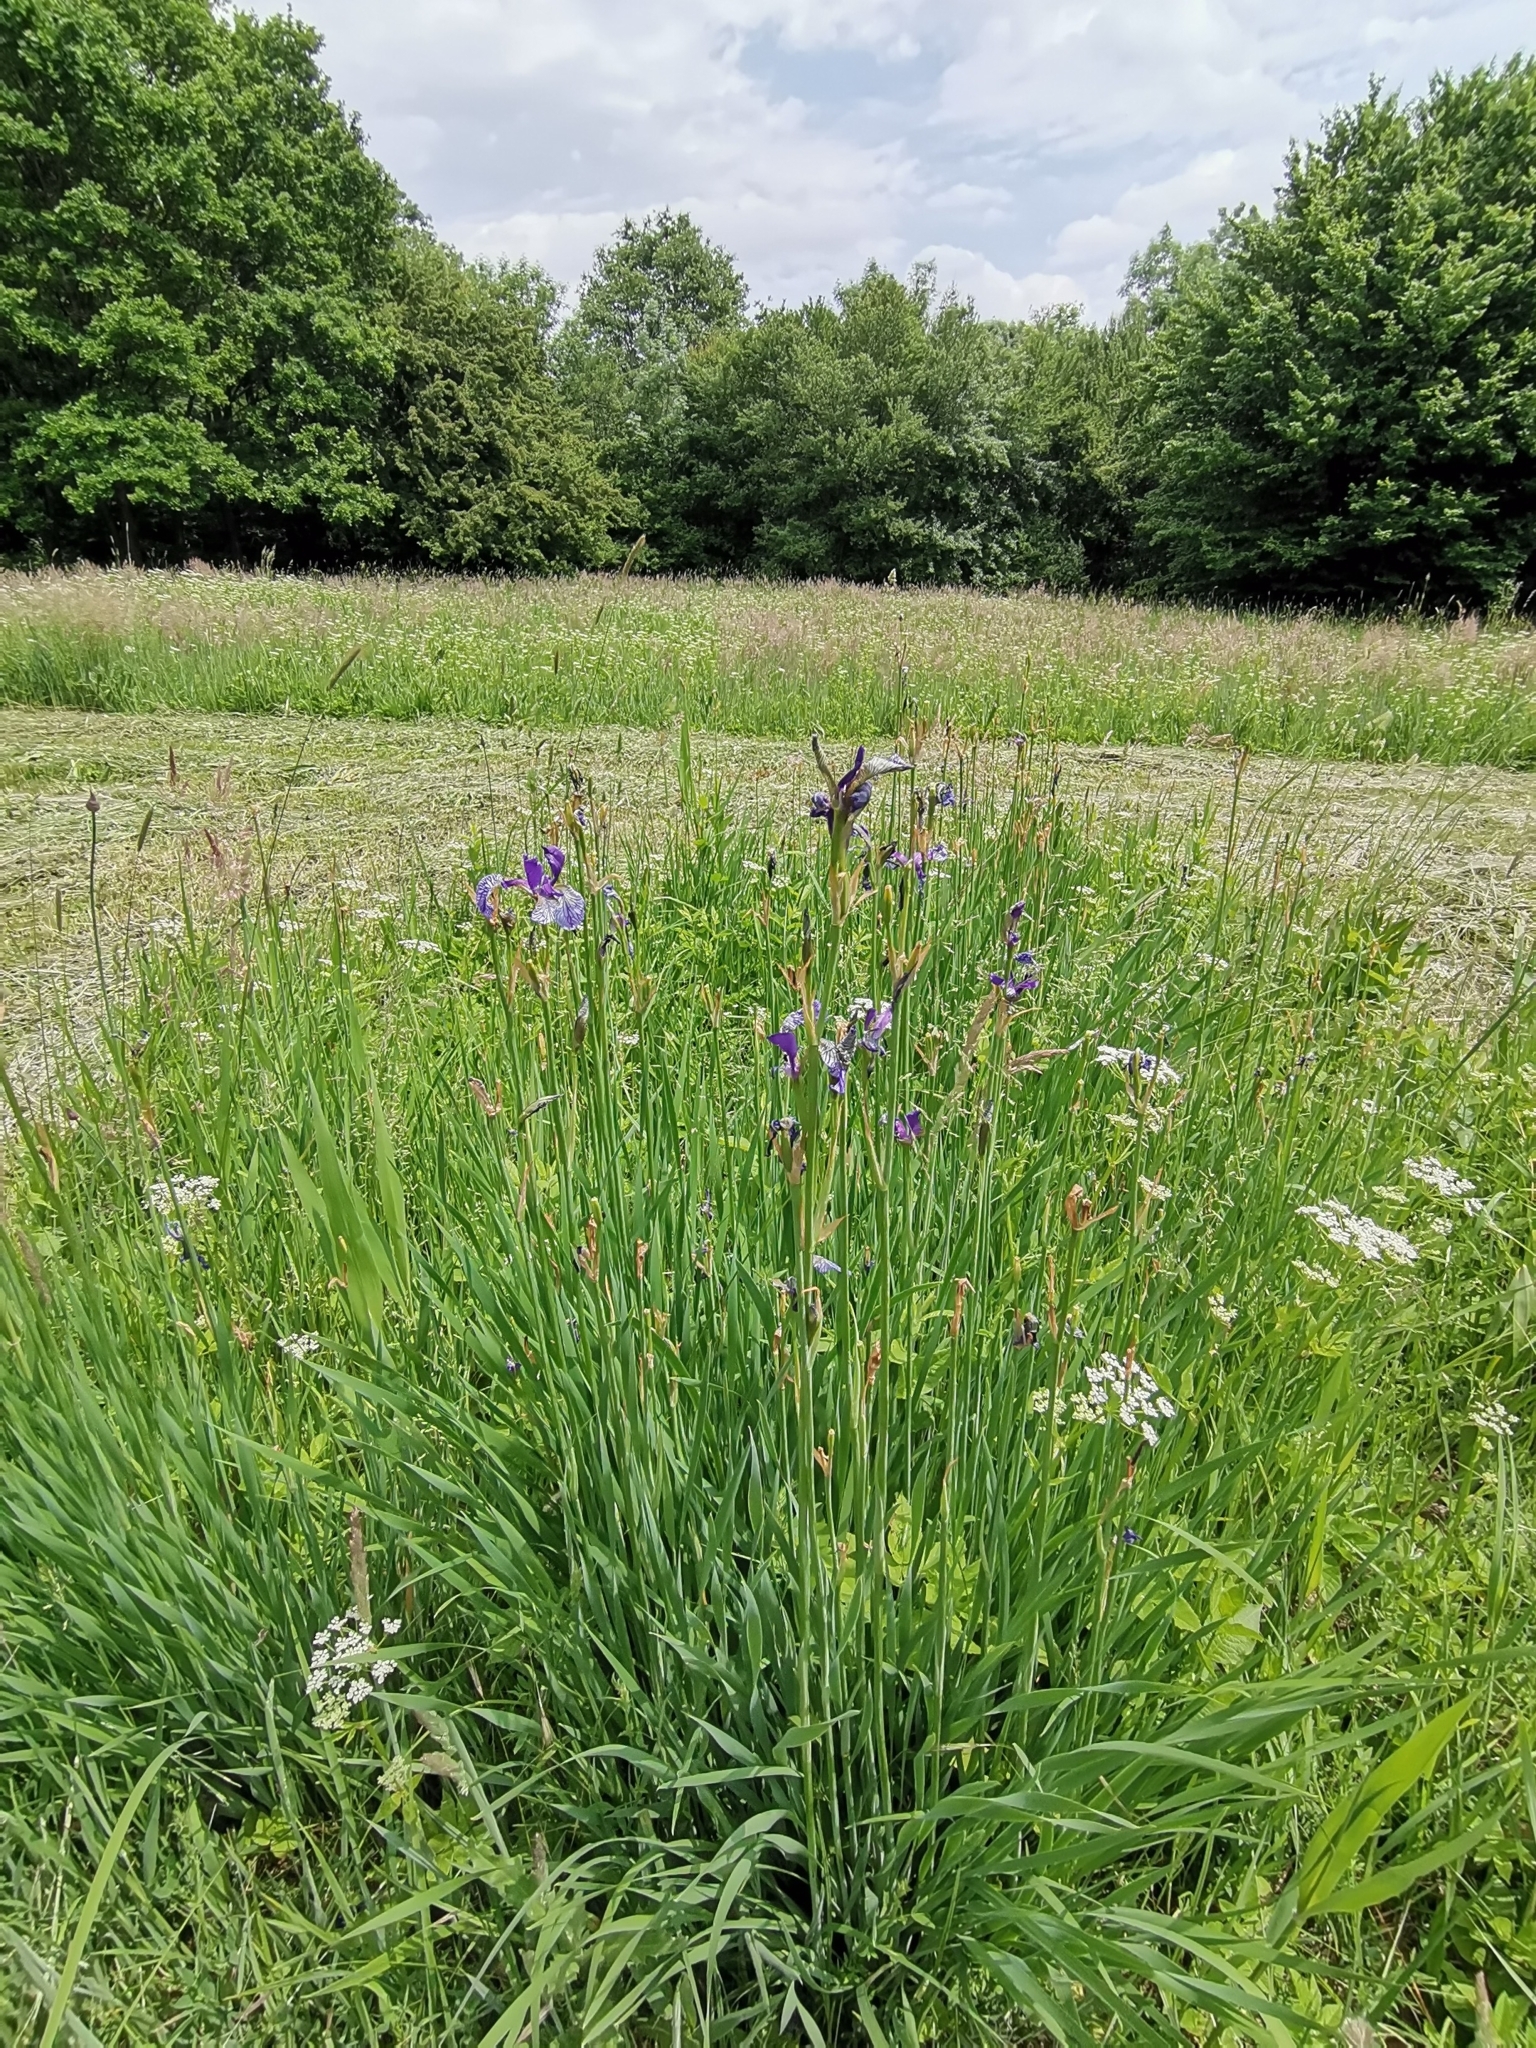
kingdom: Plantae
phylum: Tracheophyta
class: Liliopsida
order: Asparagales
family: Iridaceae
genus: Iris
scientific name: Iris sibirica
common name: Siberian iris
